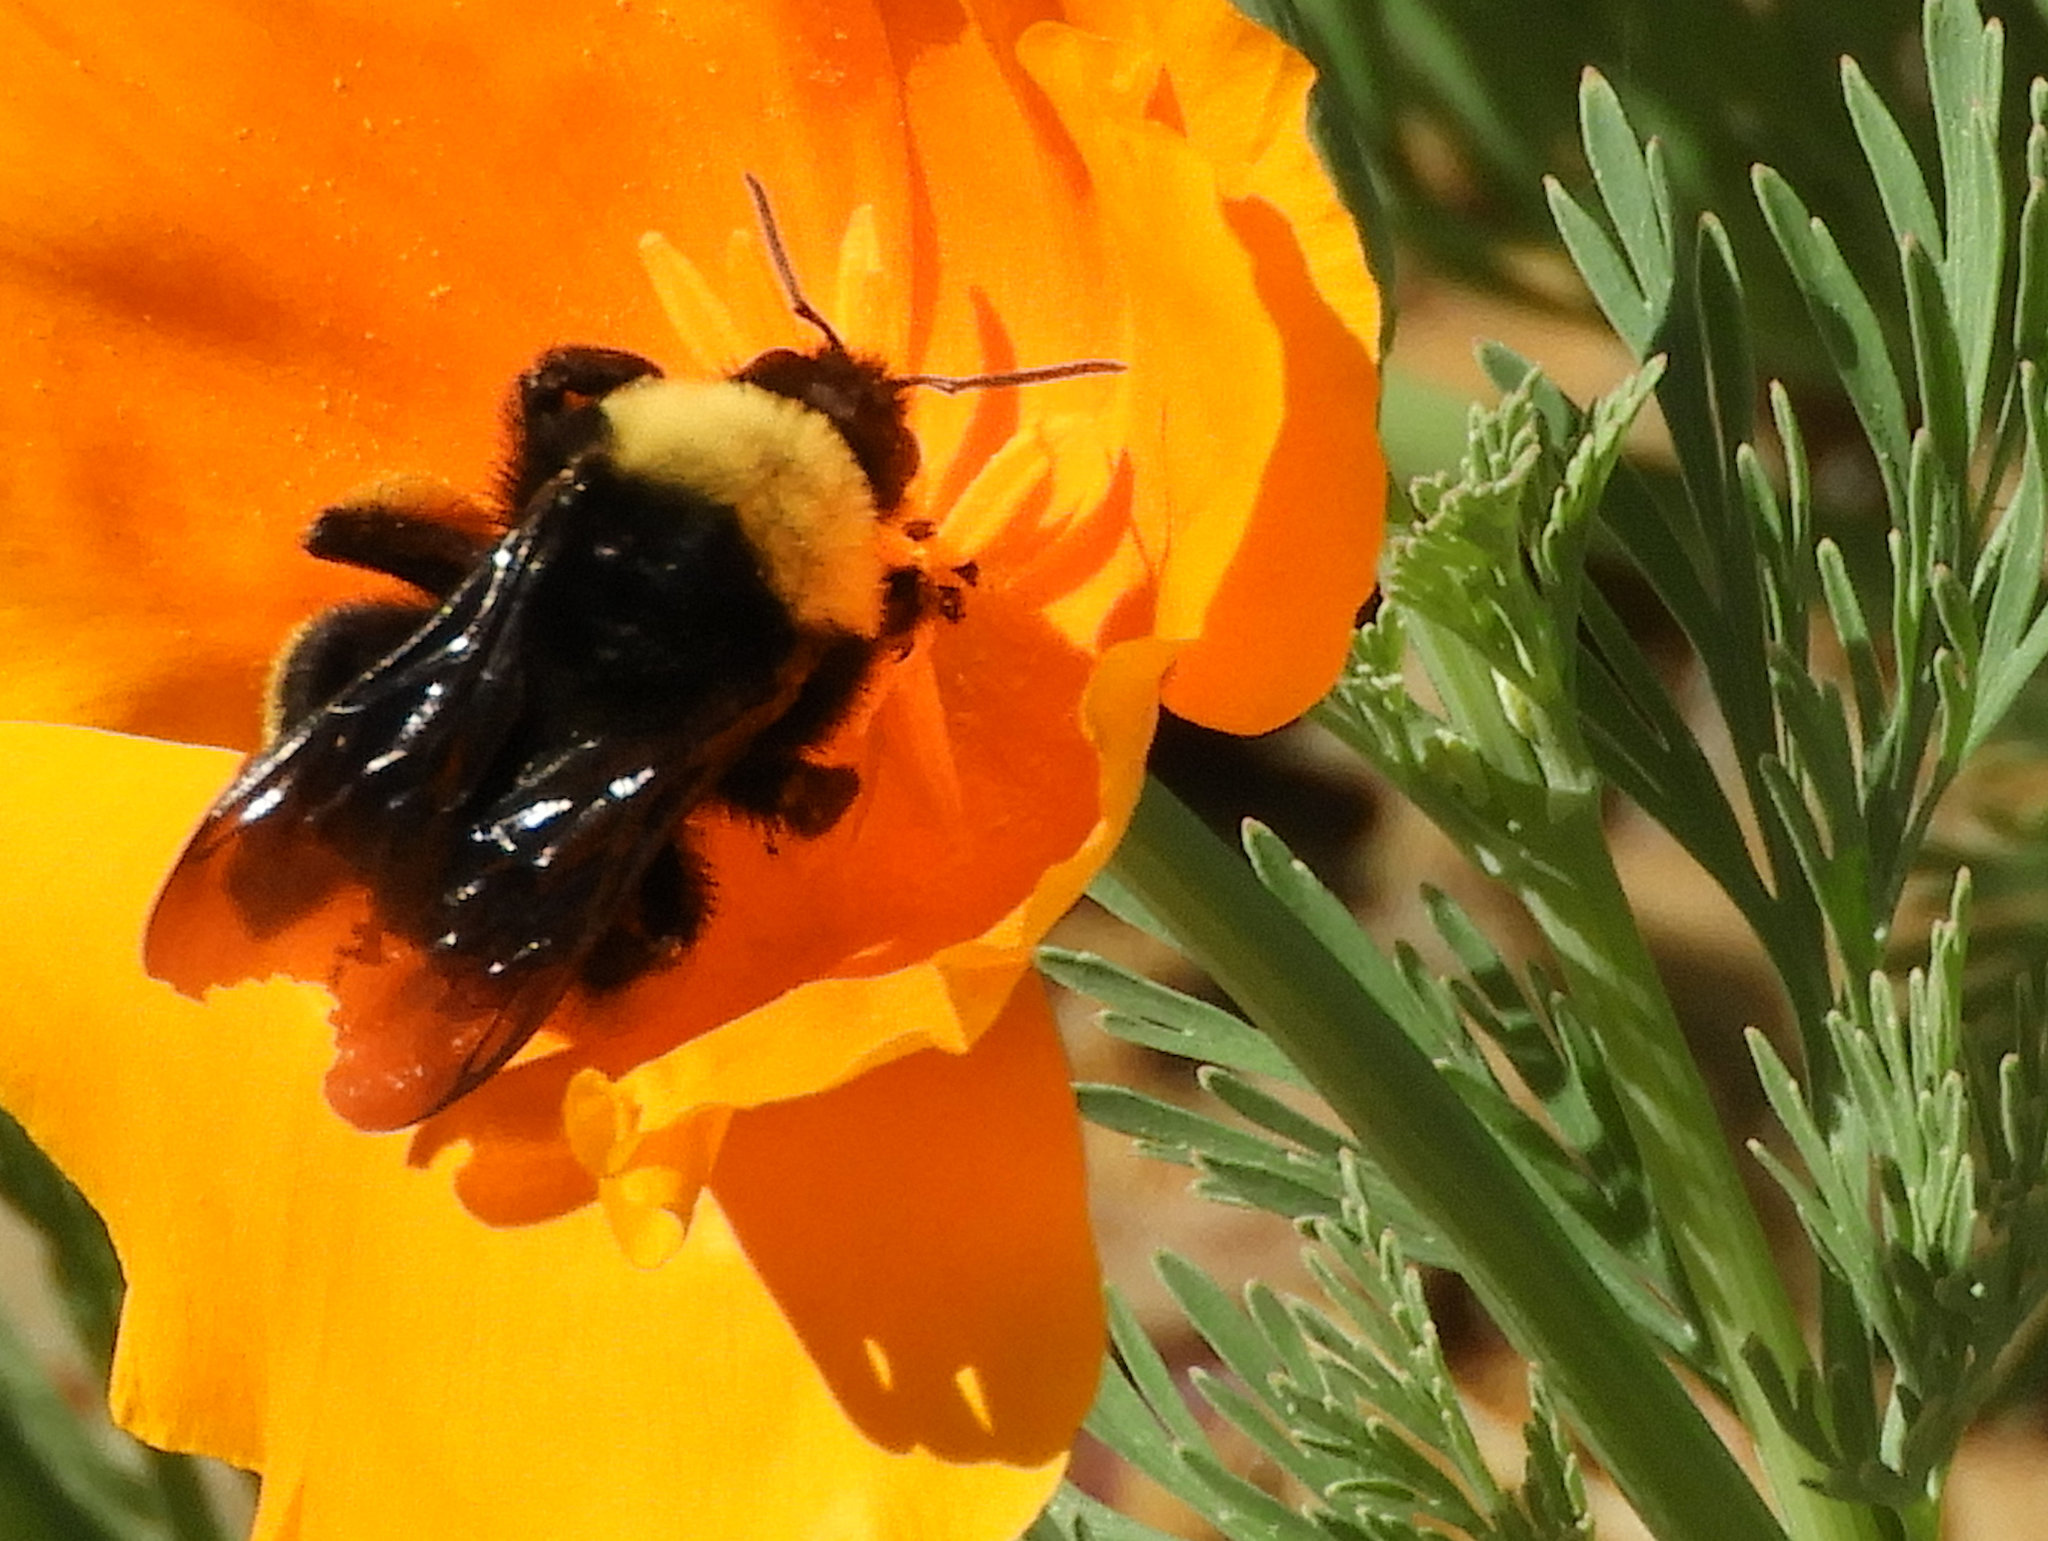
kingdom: Animalia
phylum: Arthropoda
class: Insecta
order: Hymenoptera
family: Apidae
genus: Bombus
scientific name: Bombus californicus
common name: California bumble bee
